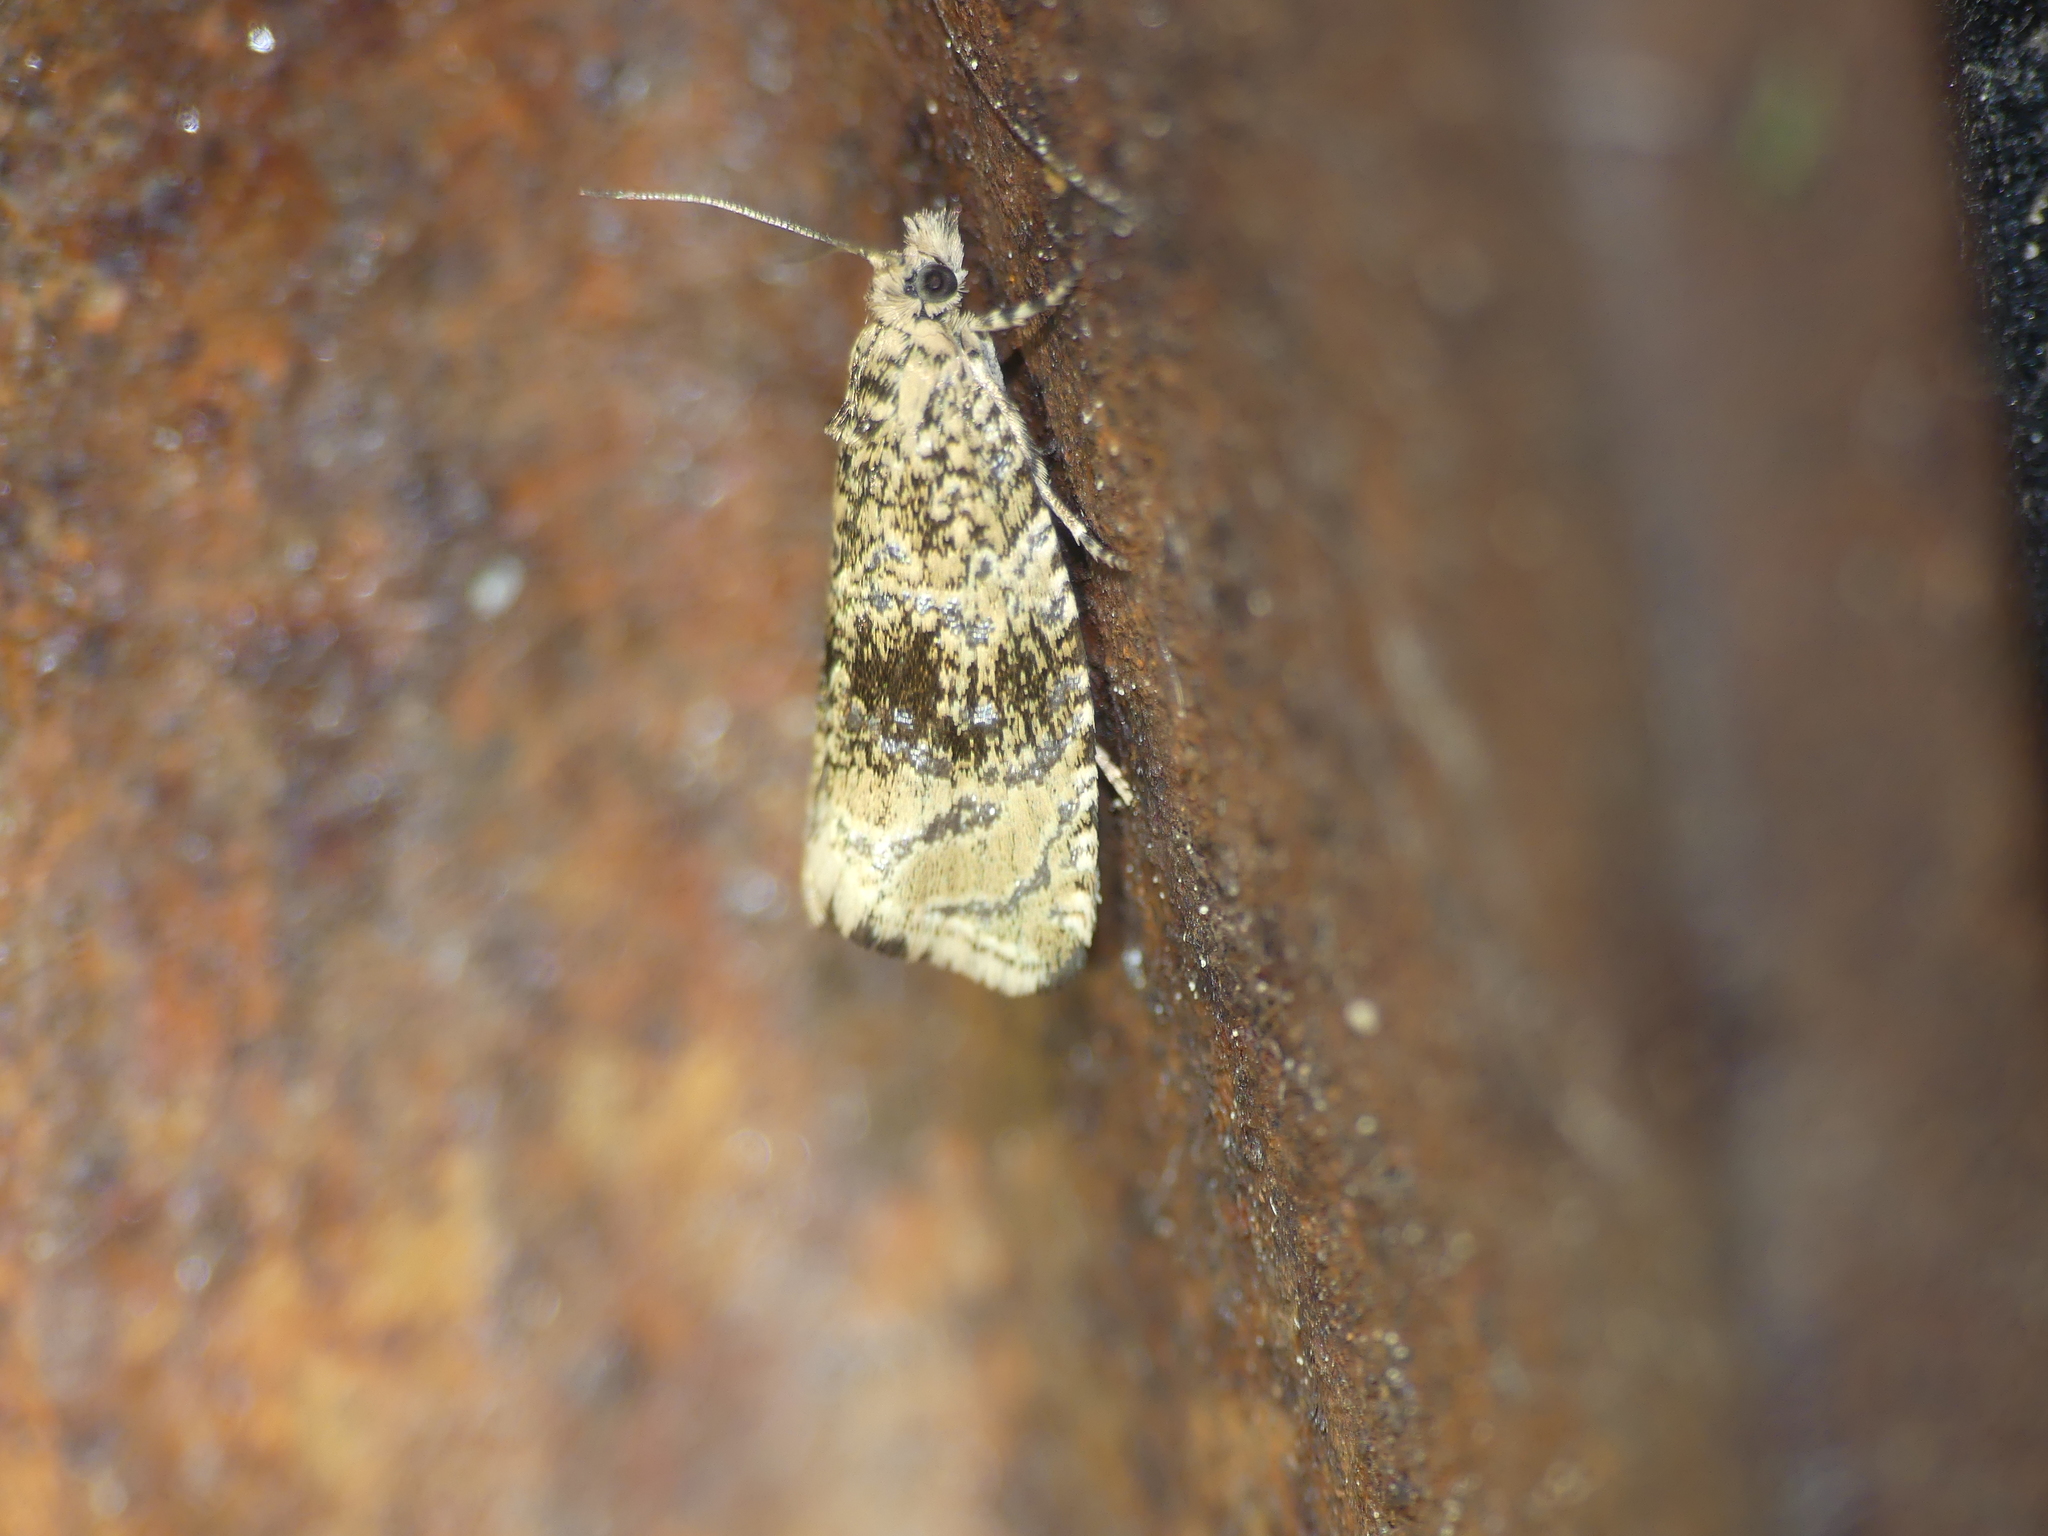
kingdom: Animalia
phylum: Arthropoda
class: Insecta
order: Lepidoptera
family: Tortricidae
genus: Syricoris
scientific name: Syricoris lacunana
